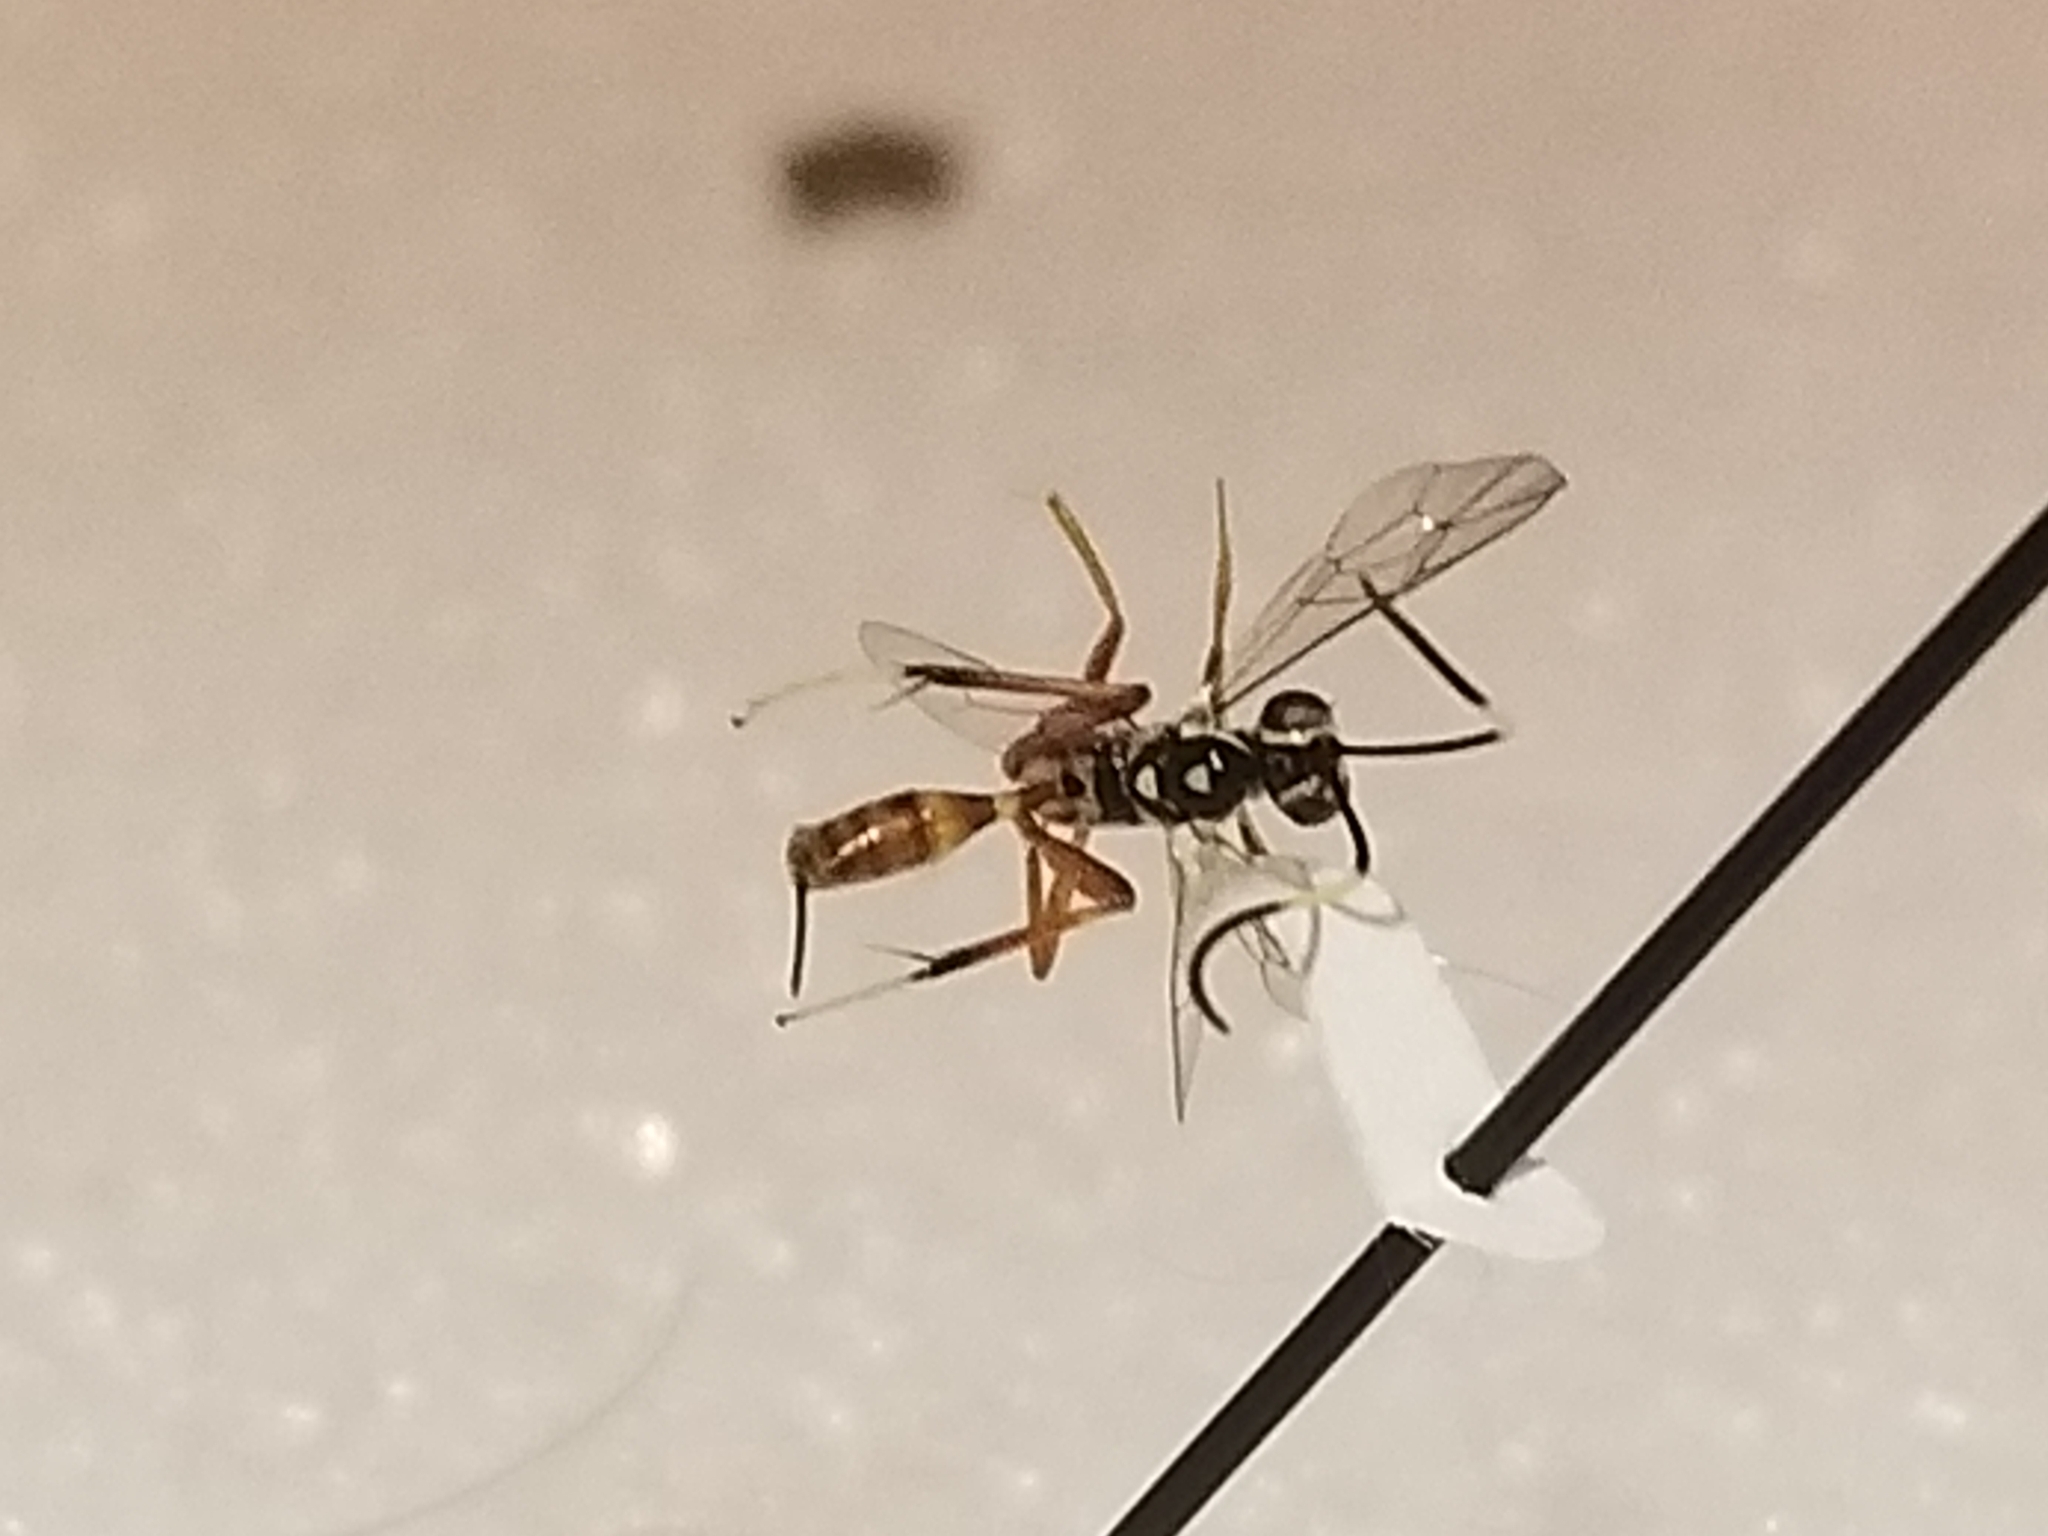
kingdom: Animalia
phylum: Arthropoda
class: Insecta
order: Hymenoptera
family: Ichneumonidae
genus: Messatoporus
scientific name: Messatoporus rufiventris
